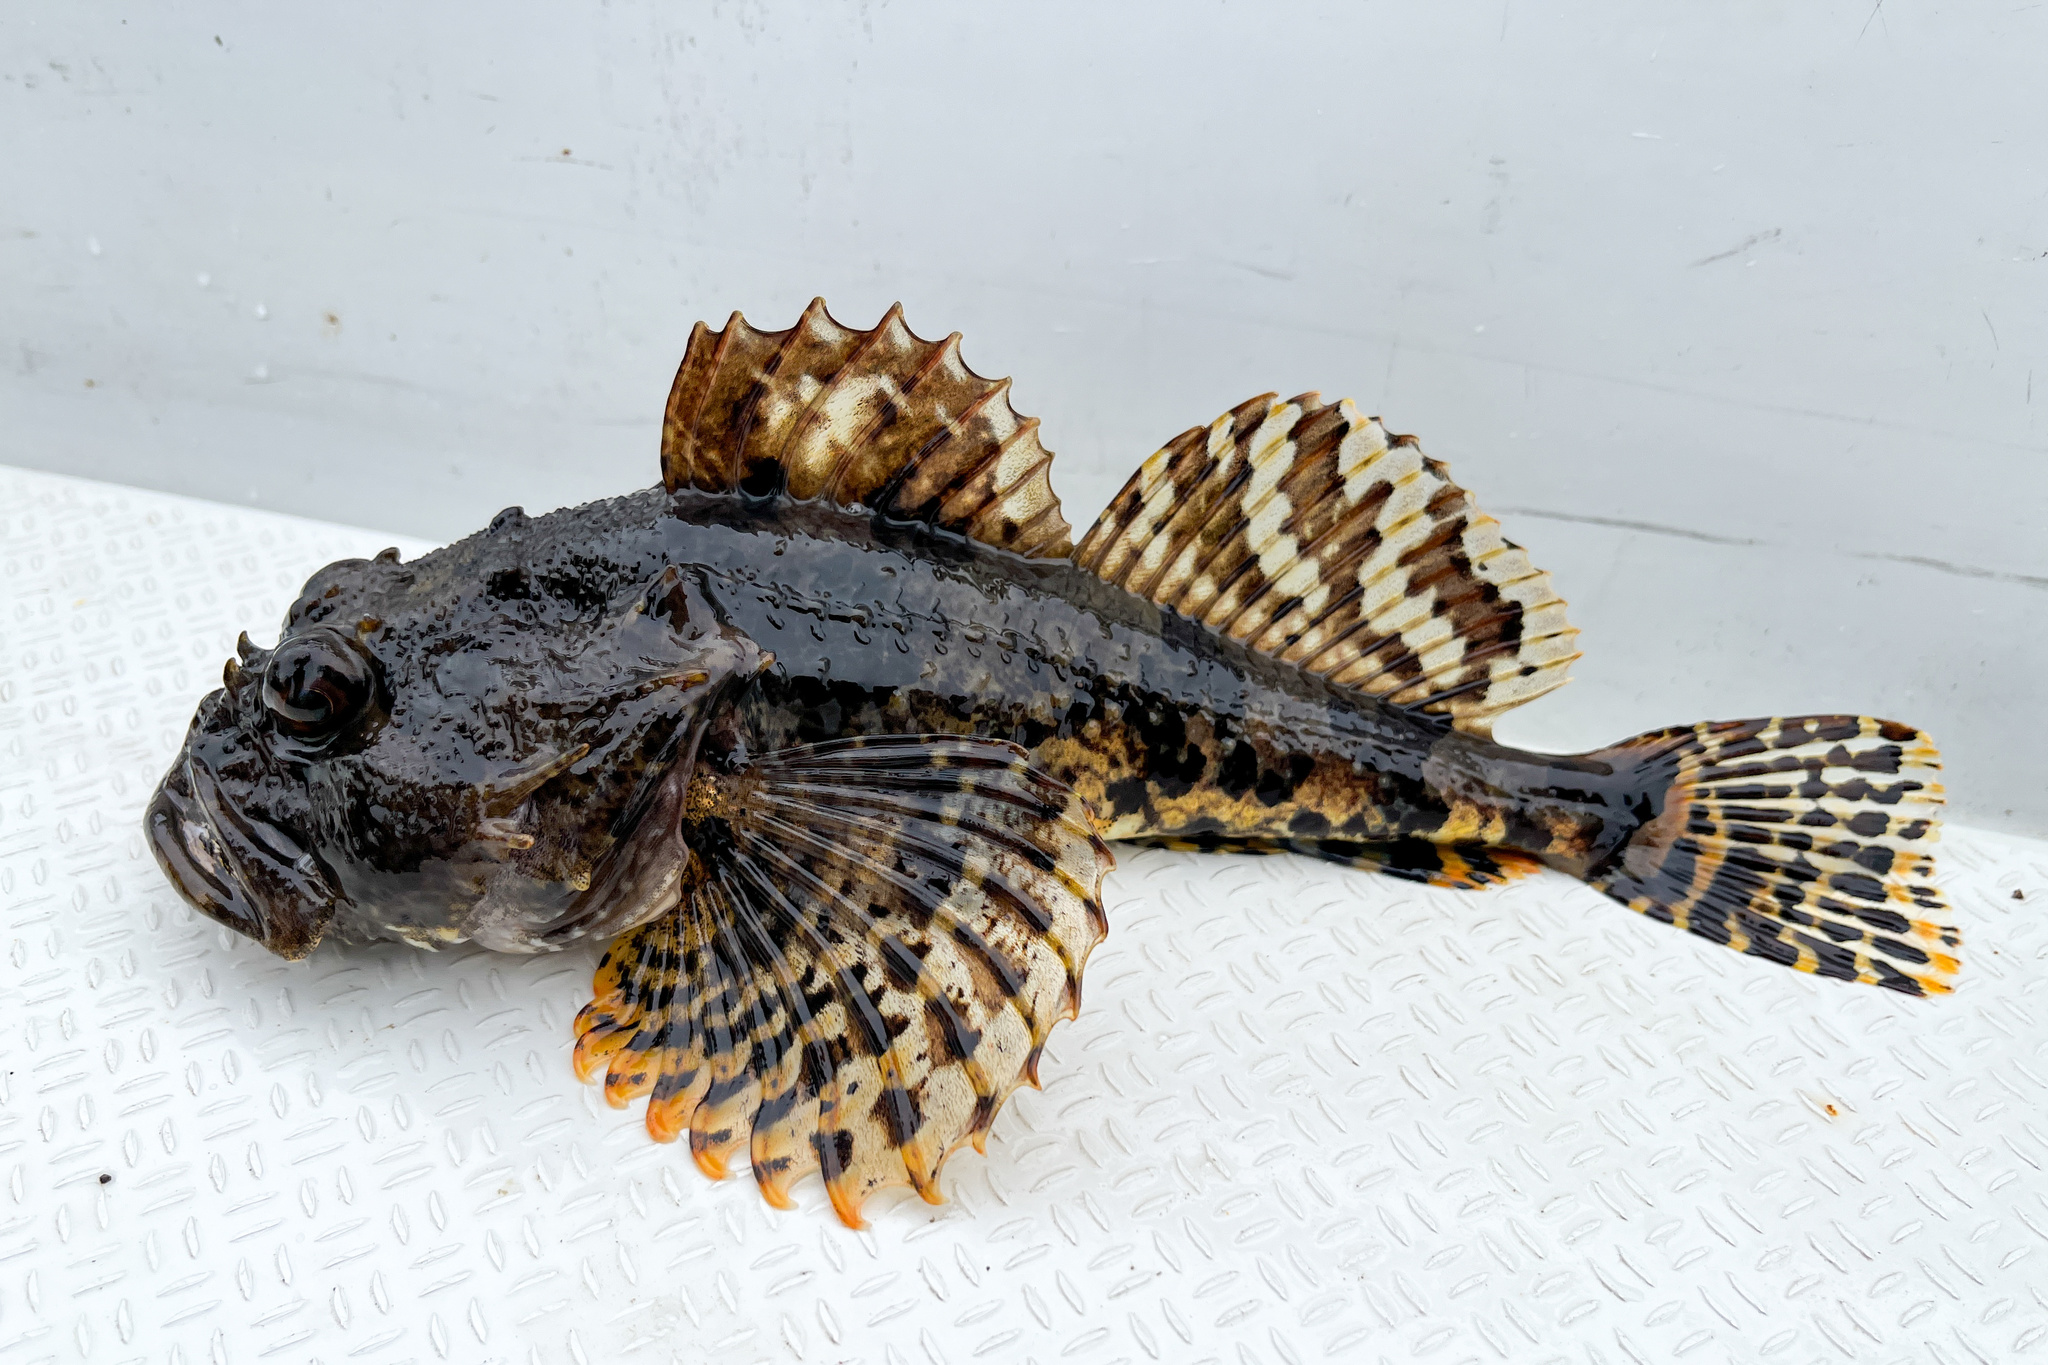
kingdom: Animalia
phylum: Chordata
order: Scorpaeniformes
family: Cottidae
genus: Myoxocephalus
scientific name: Myoxocephalus scorpius
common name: Shorthorn sculpin
